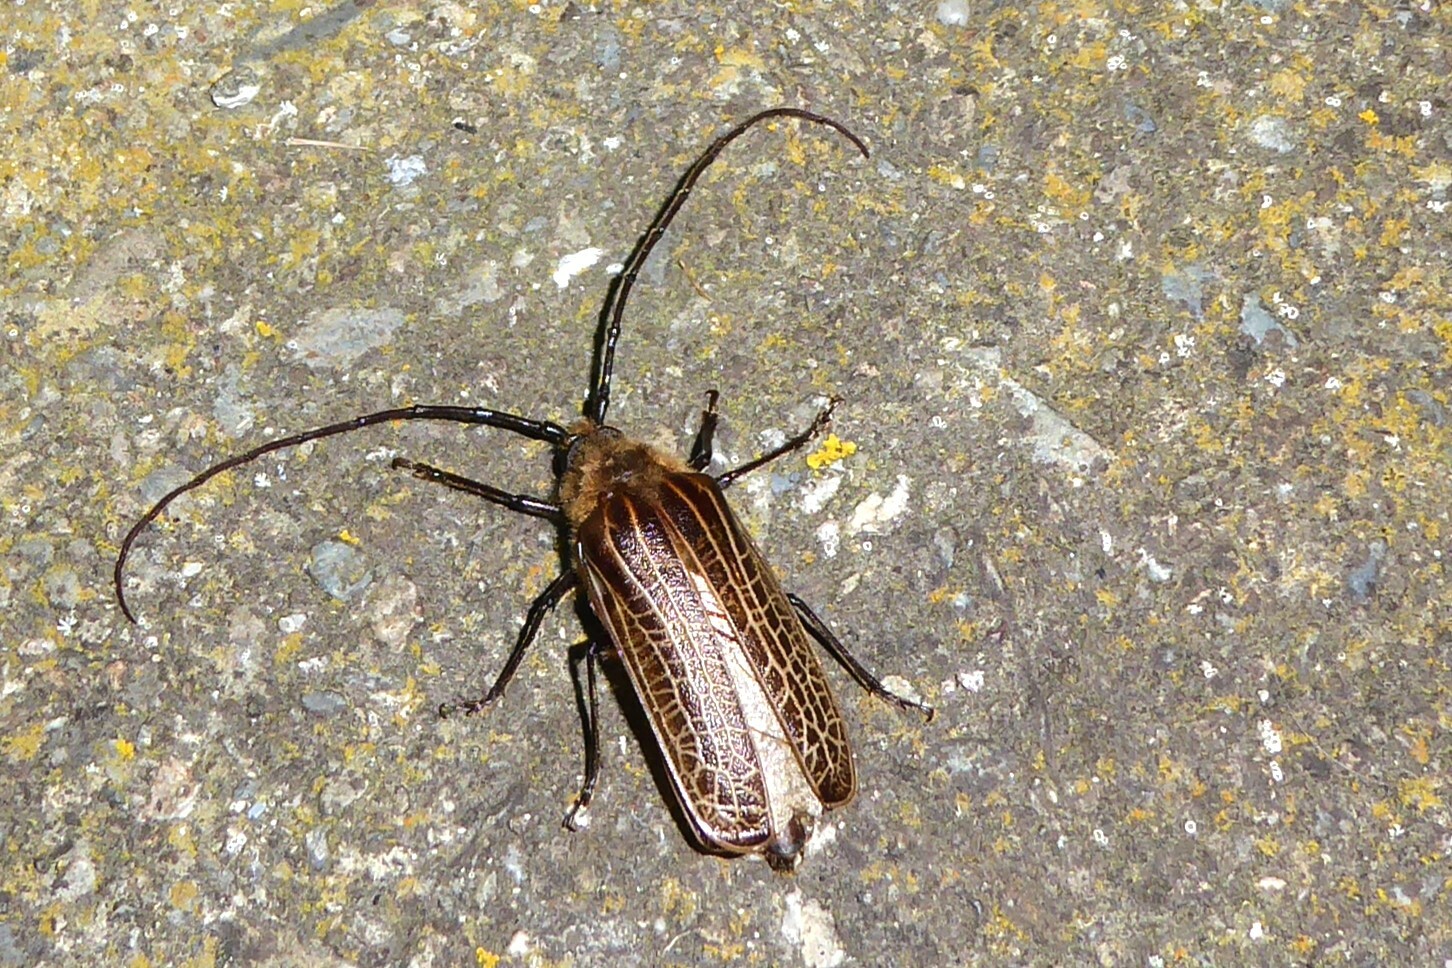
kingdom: Animalia
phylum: Arthropoda
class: Insecta
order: Coleoptera
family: Cerambycidae
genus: Prionoplus
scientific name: Prionoplus reticularis
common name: Huhu beetle
